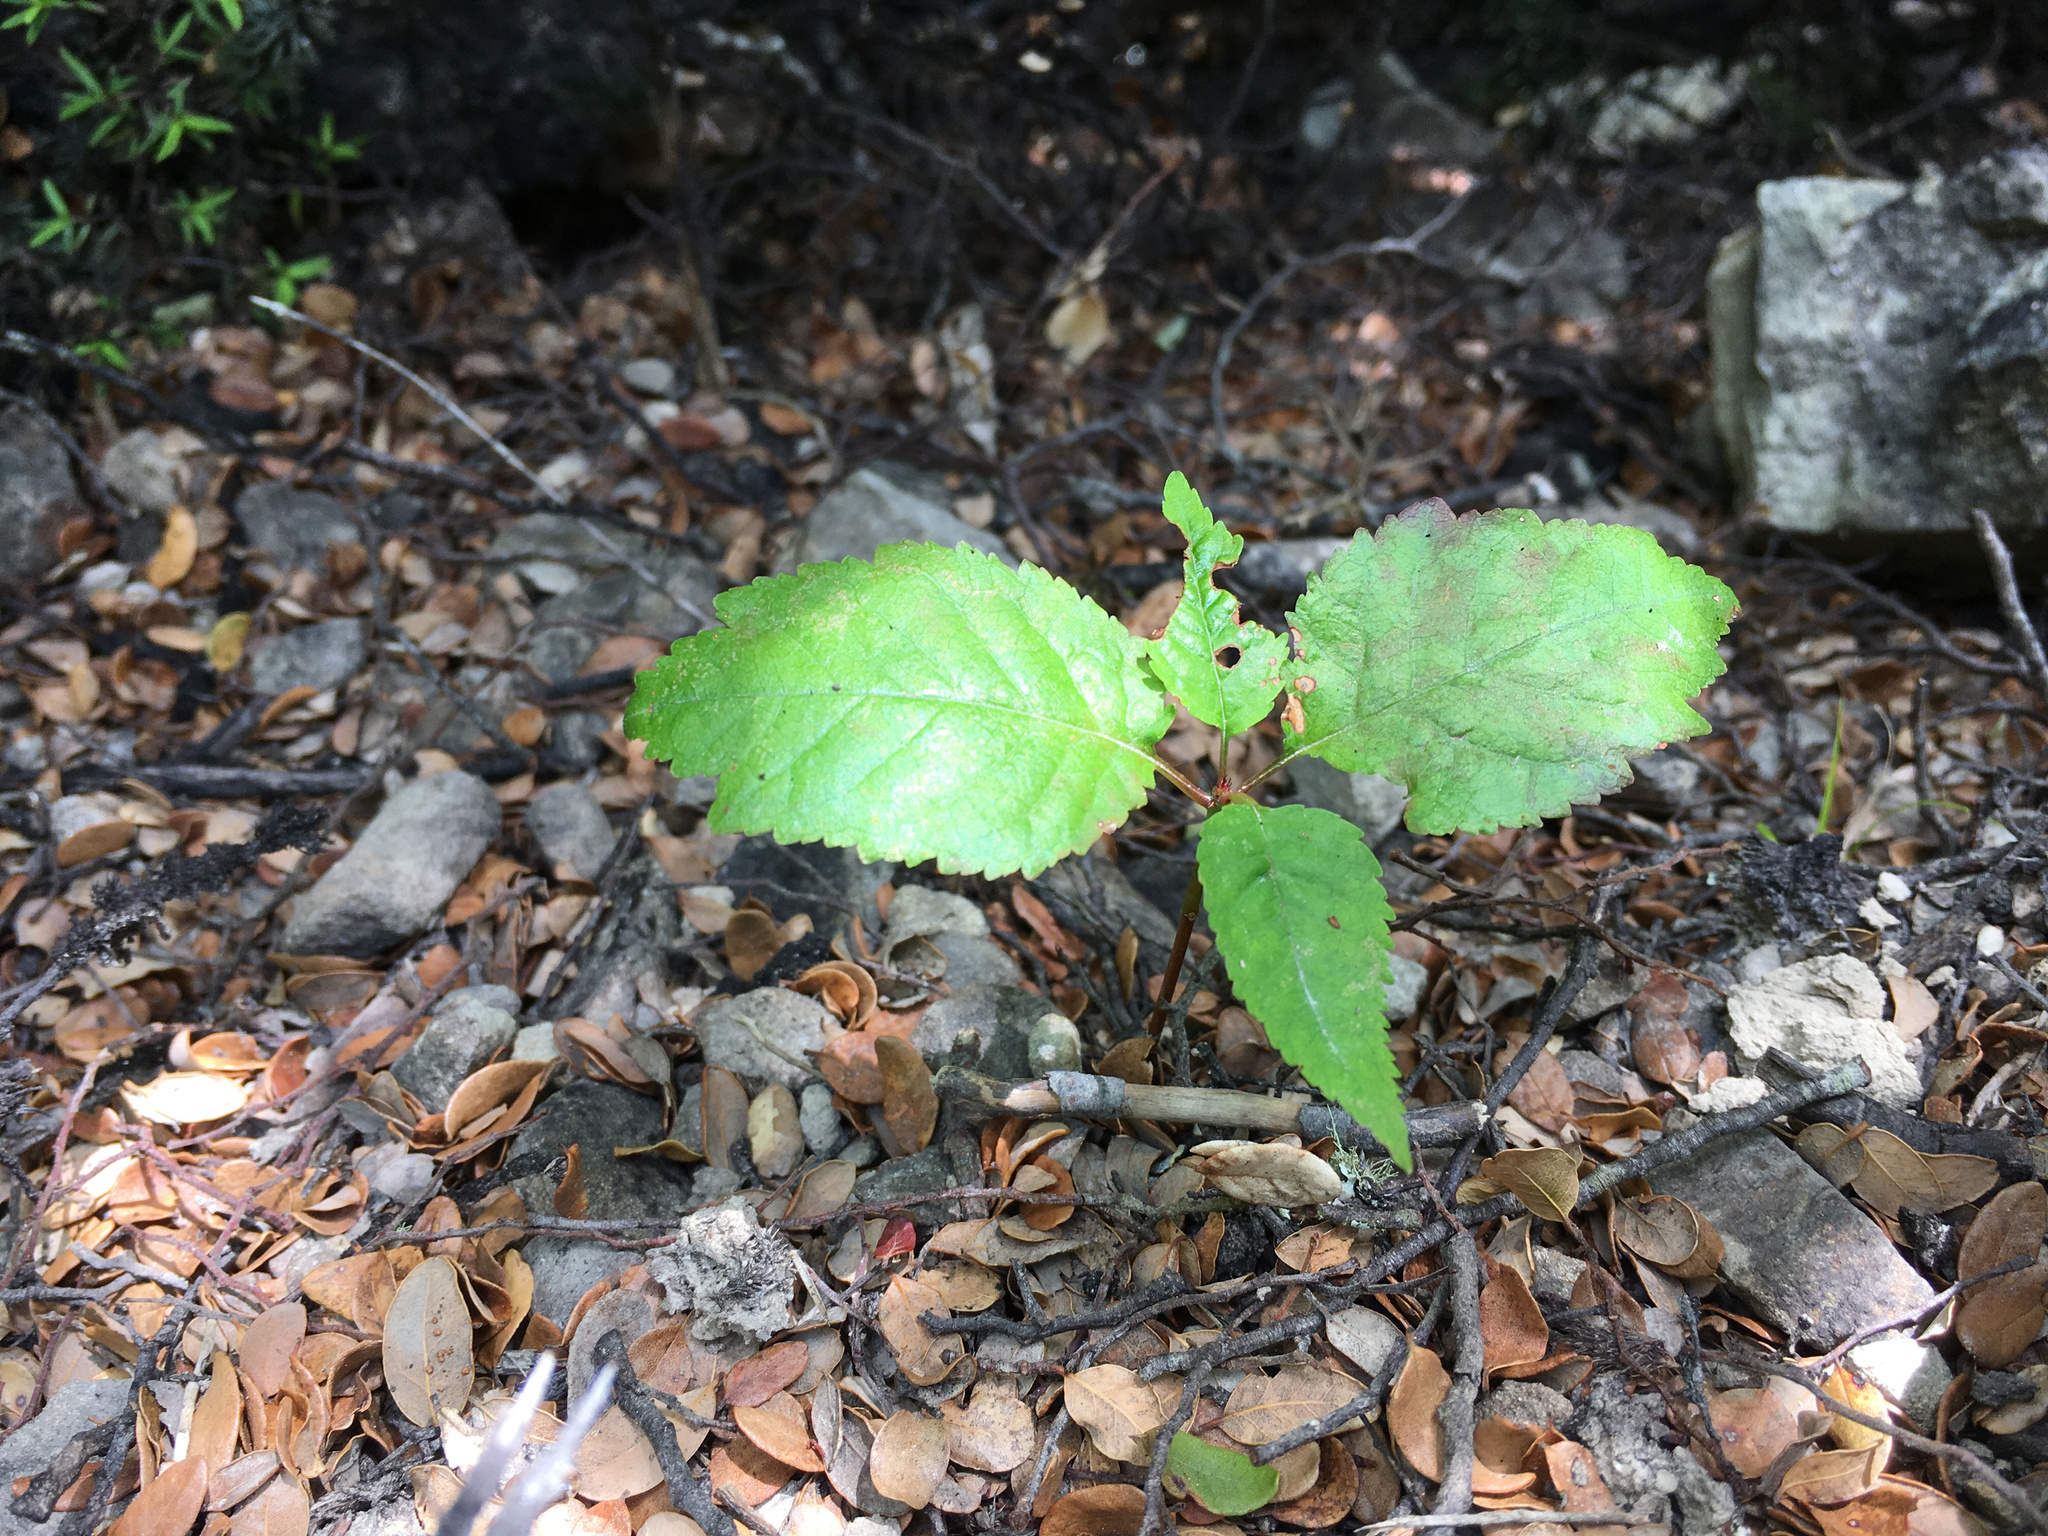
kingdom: Plantae
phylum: Tracheophyta
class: Magnoliopsida
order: Rosales
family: Rosaceae
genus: Prunus
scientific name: Prunus avium
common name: Sweet cherry
